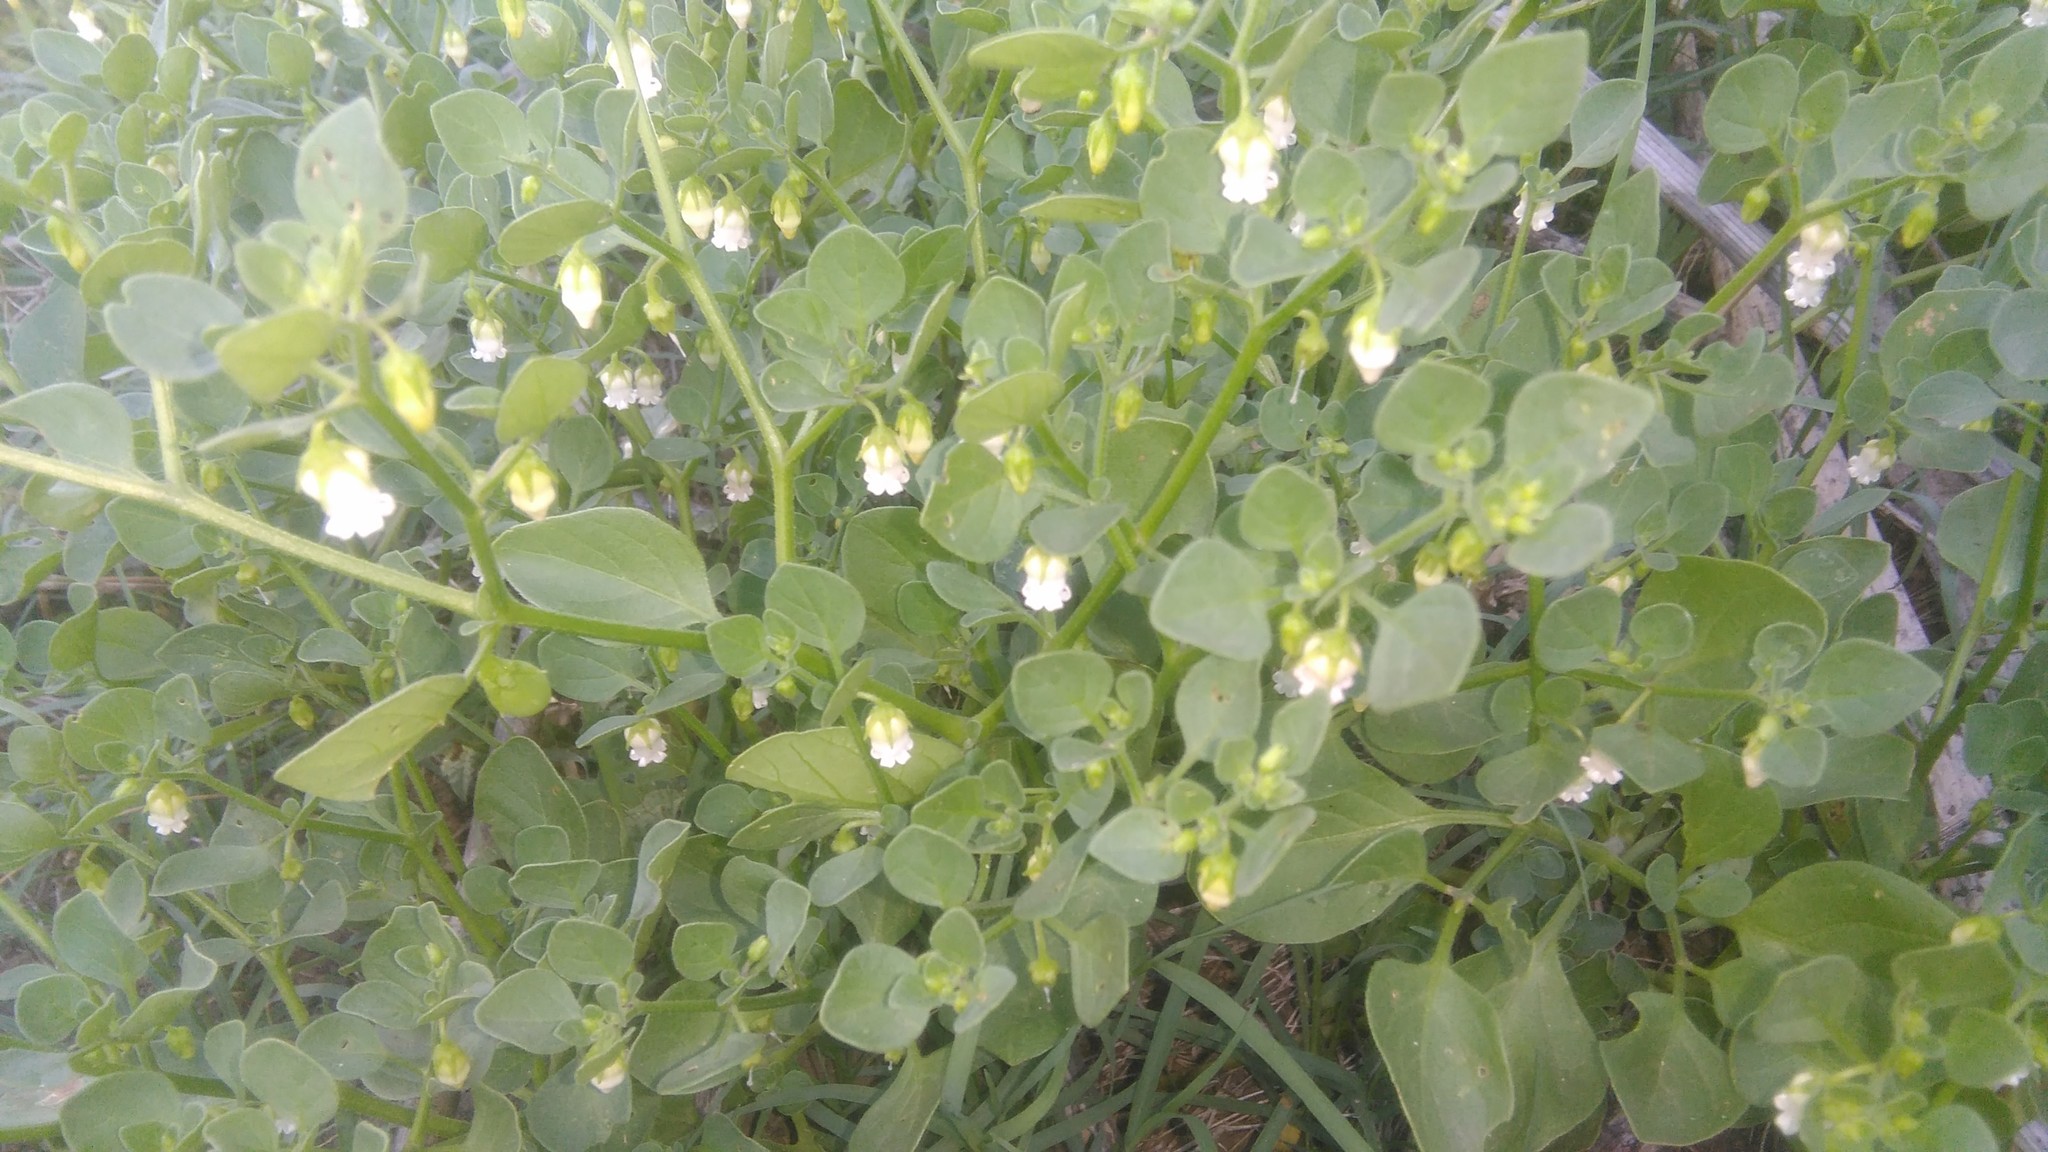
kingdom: Plantae
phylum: Tracheophyta
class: Magnoliopsida
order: Solanales
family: Solanaceae
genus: Salpichroa
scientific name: Salpichroa origanifolia
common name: Lily-of-the-valley-vine
